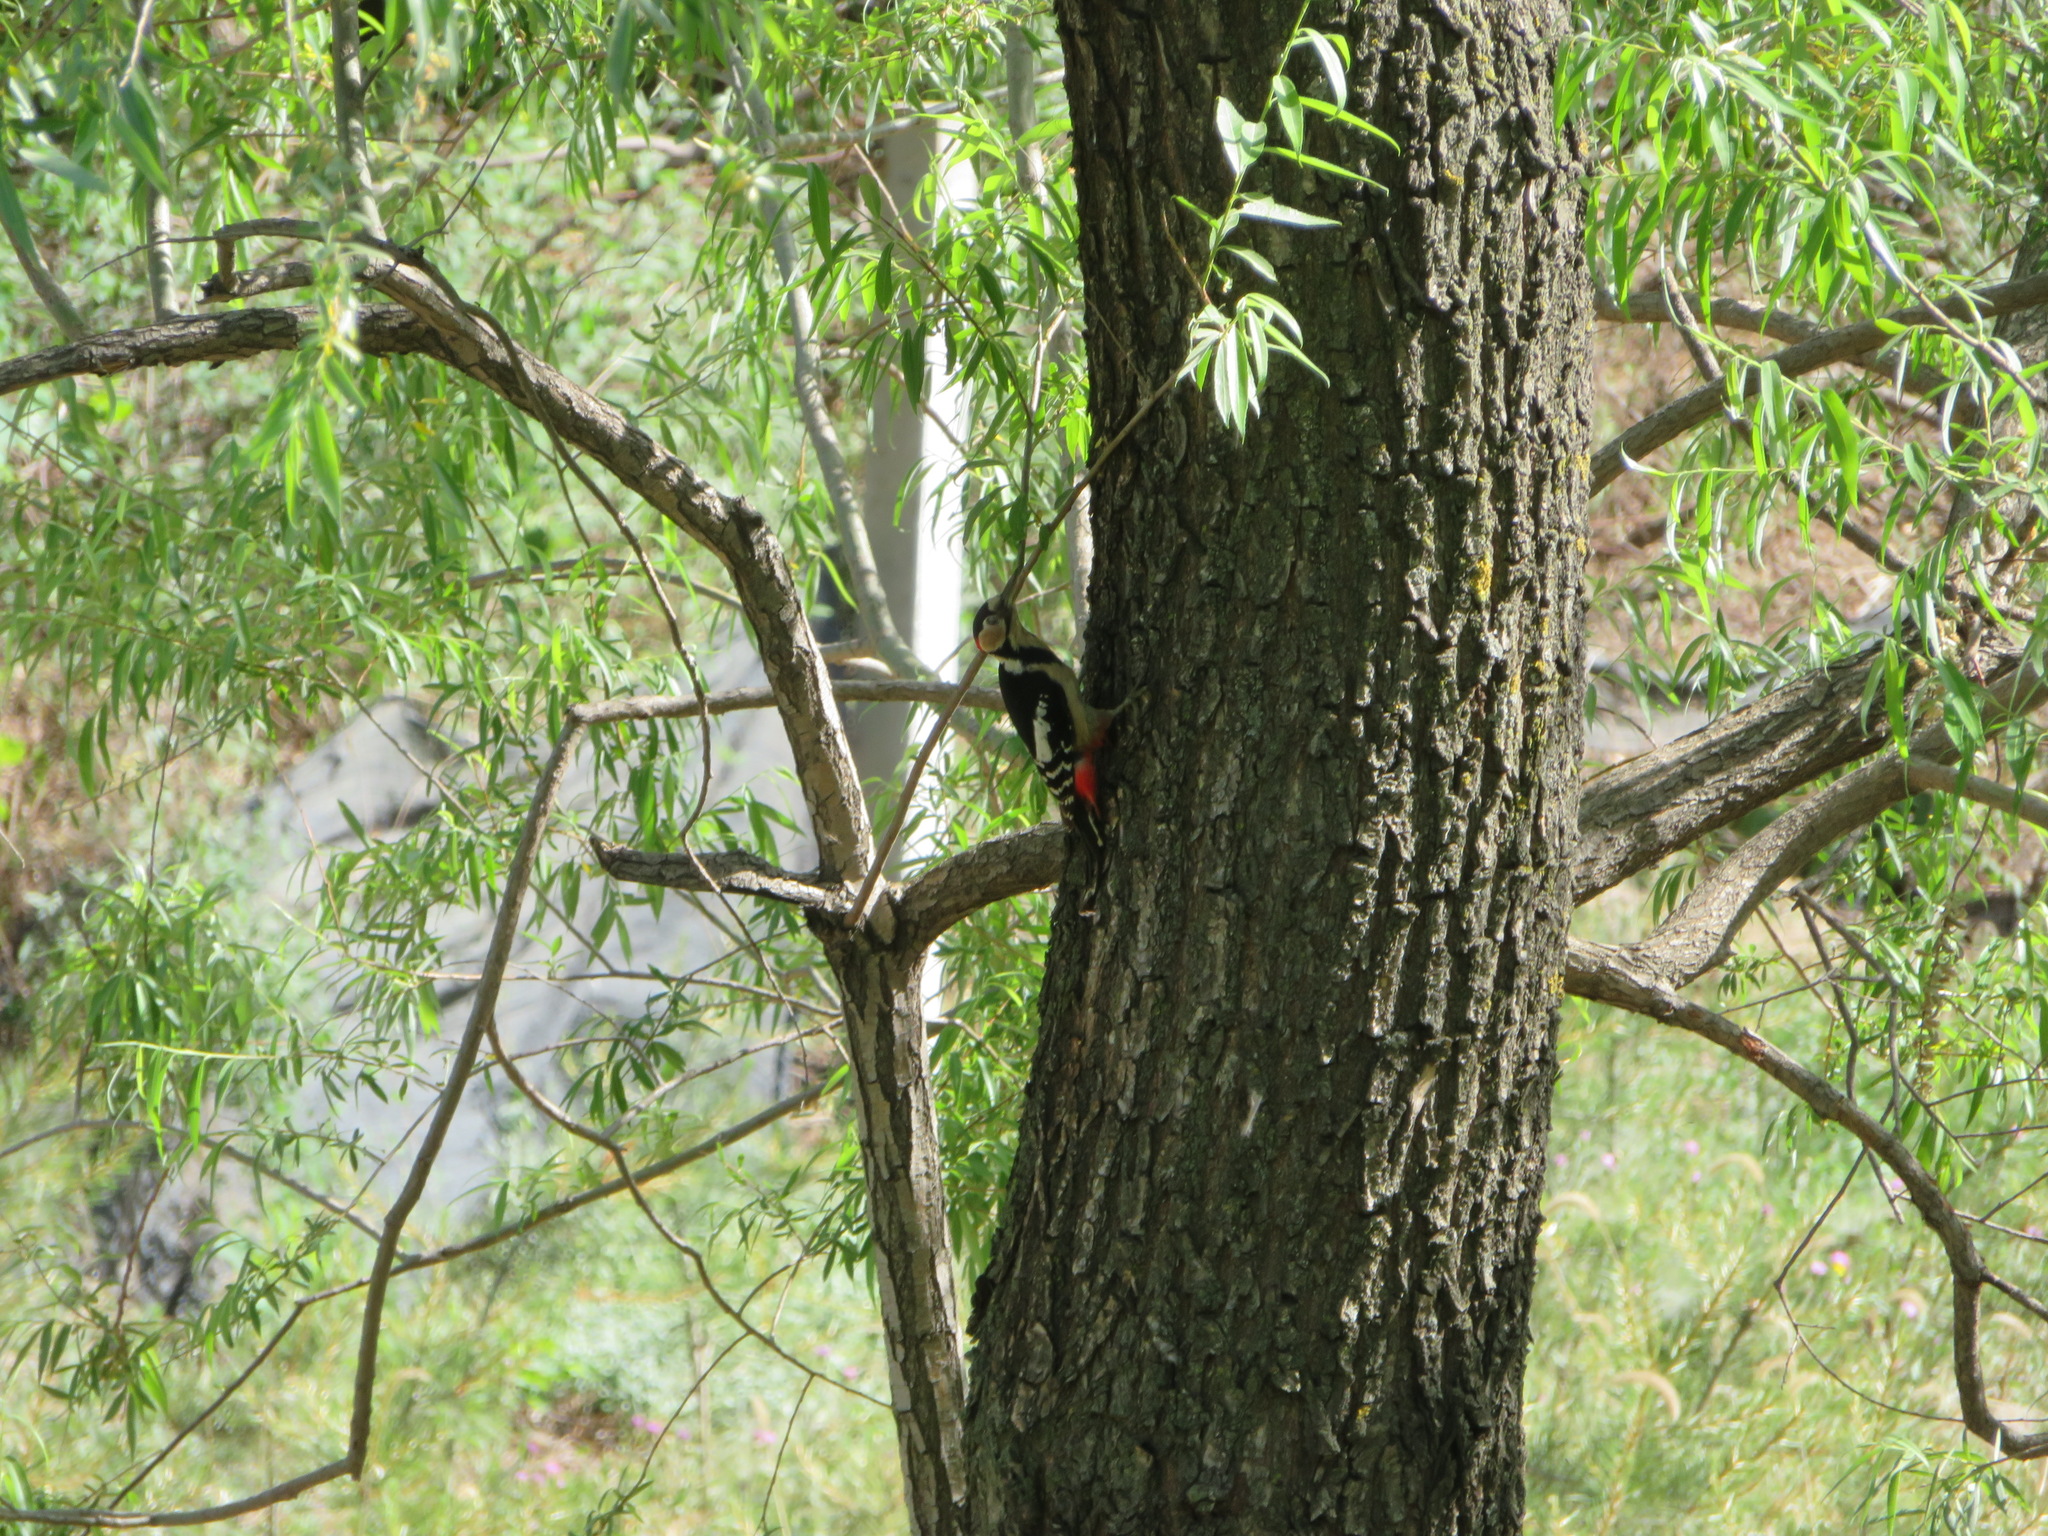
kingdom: Animalia
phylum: Chordata
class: Aves
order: Piciformes
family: Picidae
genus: Dendrocopos
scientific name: Dendrocopos major
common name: Great spotted woodpecker
